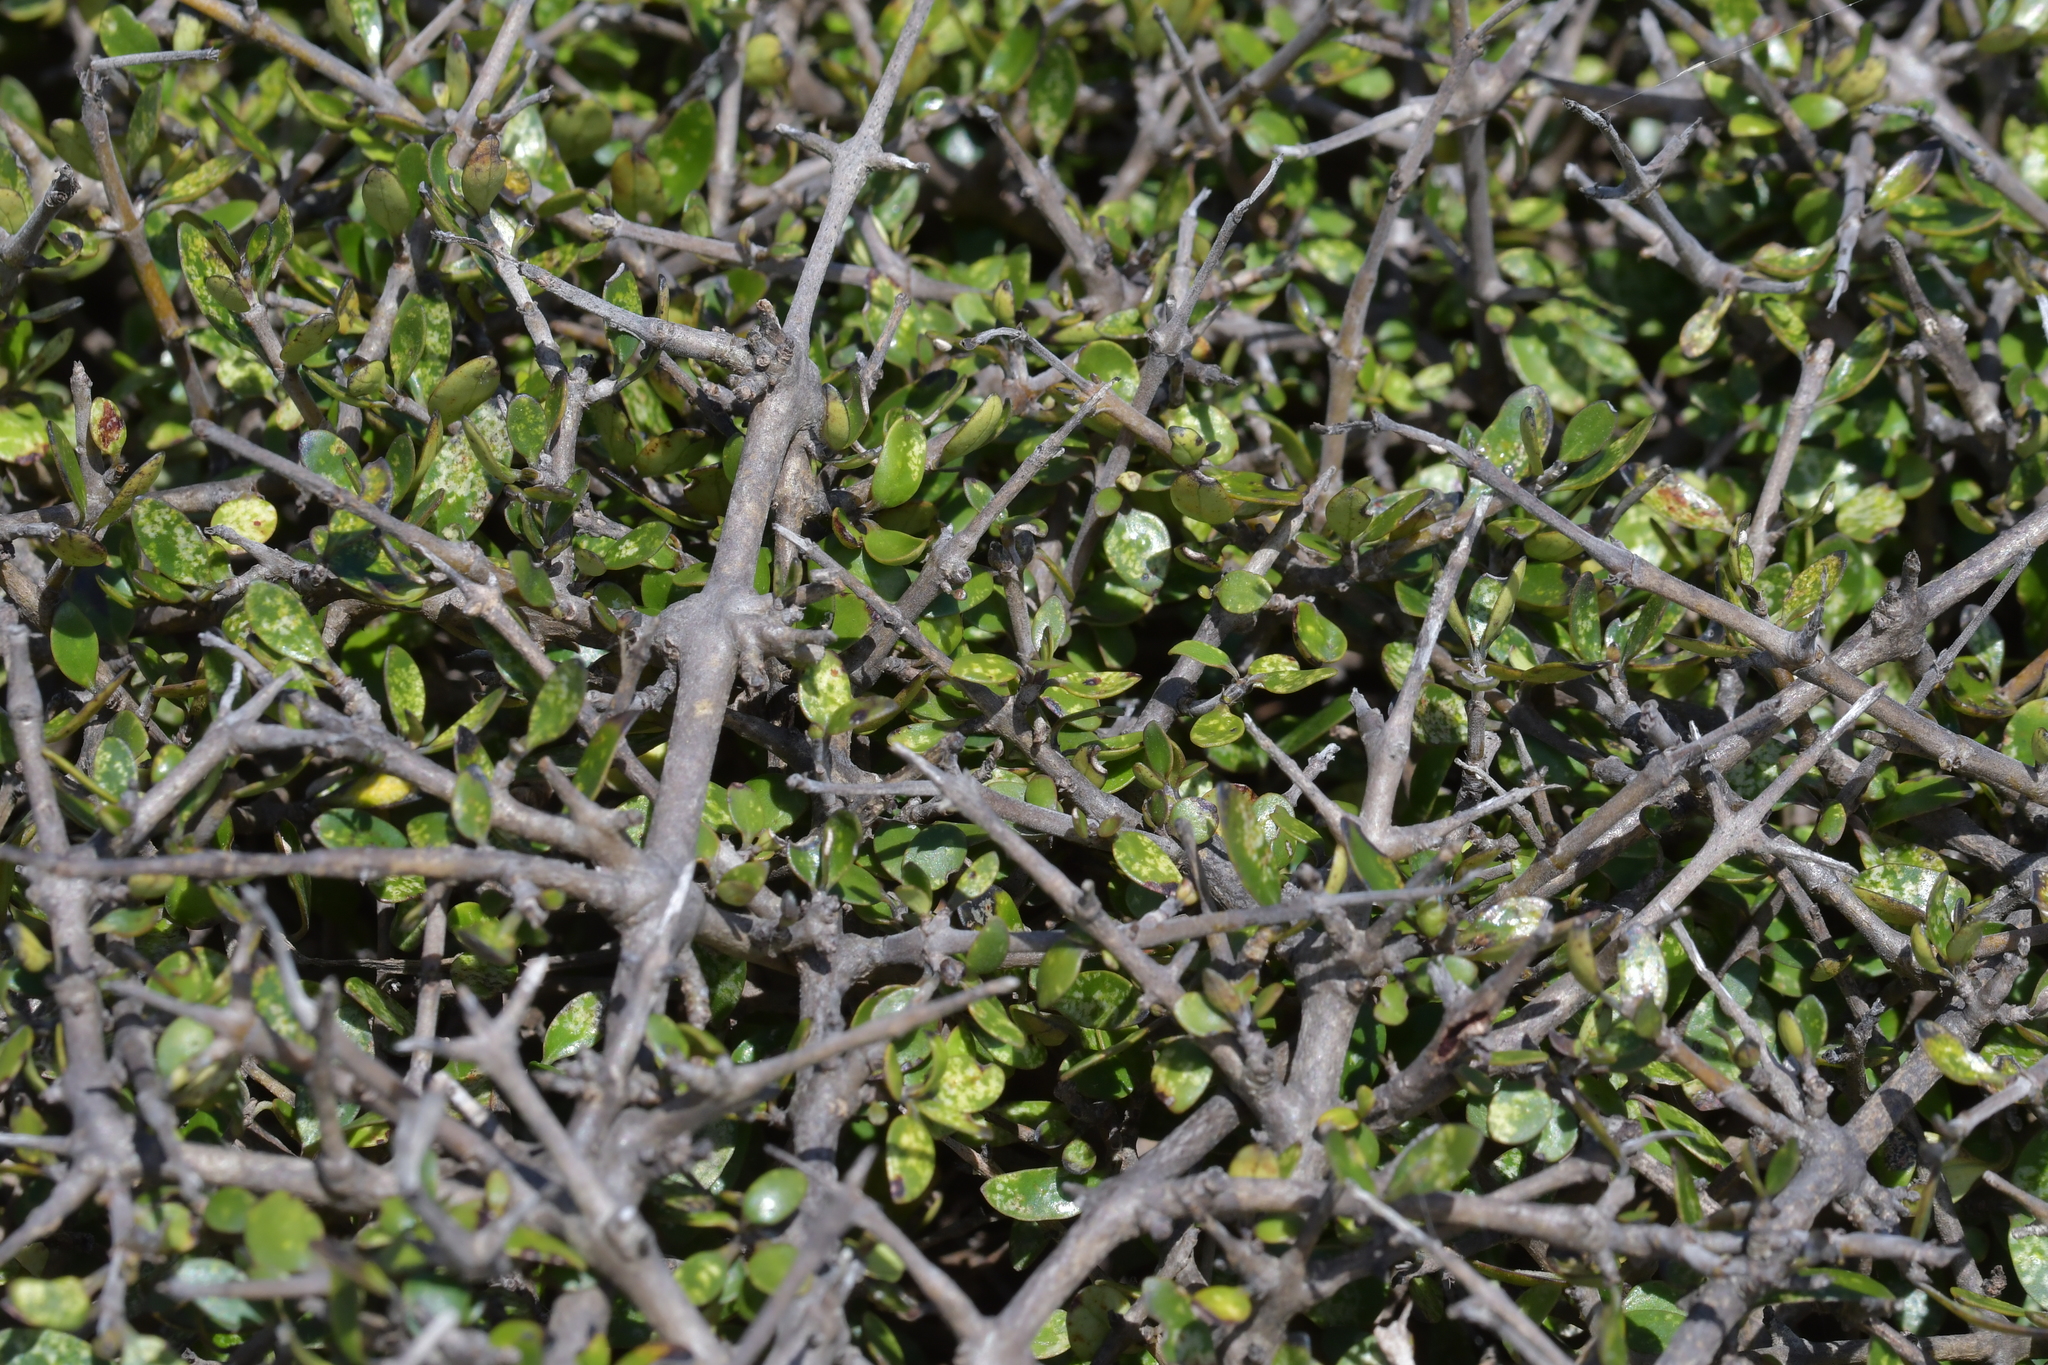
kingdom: Plantae
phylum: Tracheophyta
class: Magnoliopsida
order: Gentianales
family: Rubiaceae
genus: Coprosma
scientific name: Coprosma propinqua
